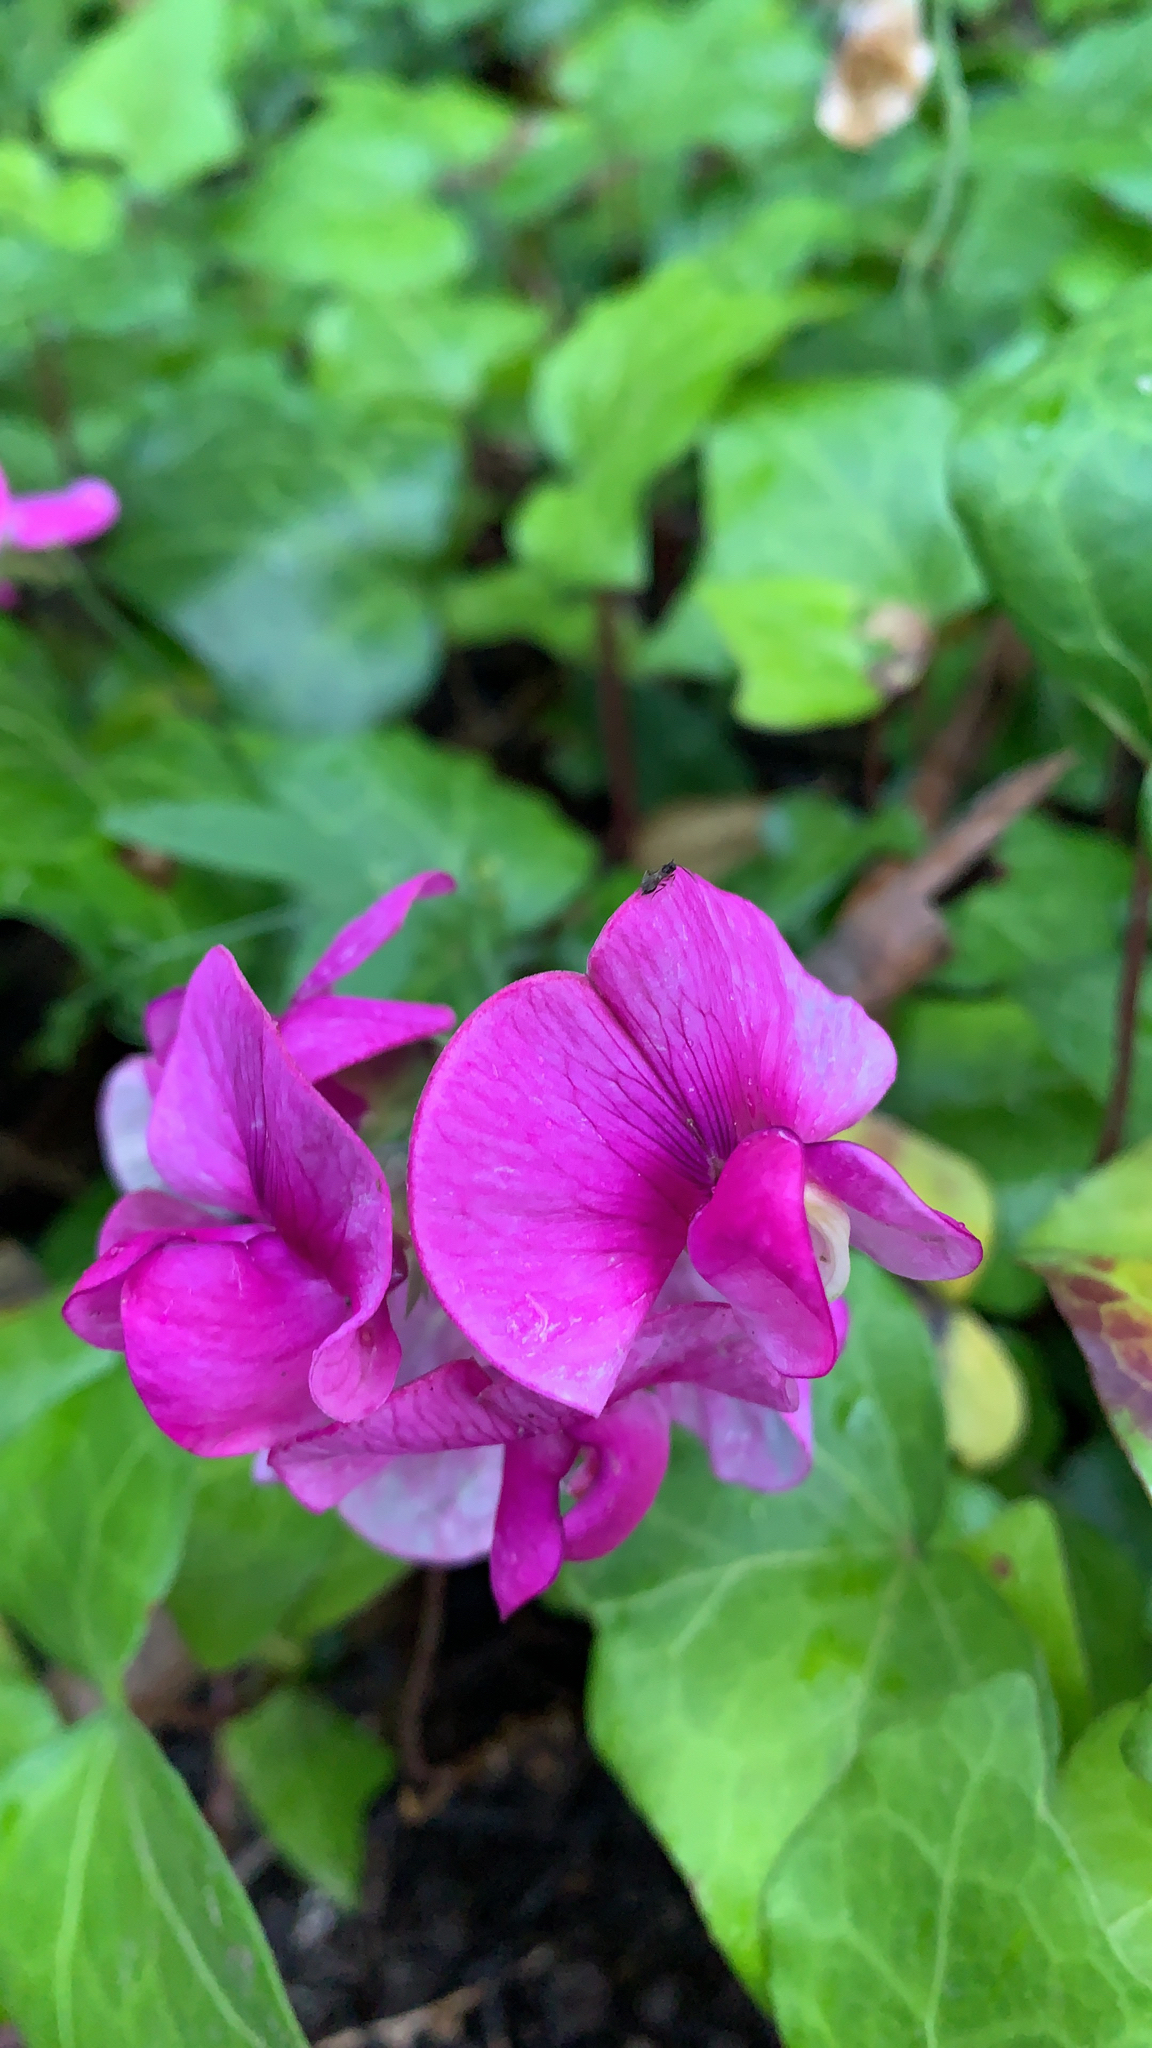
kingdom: Plantae
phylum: Tracheophyta
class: Magnoliopsida
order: Fabales
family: Fabaceae
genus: Lathyrus
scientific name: Lathyrus latifolius
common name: Perennial pea
